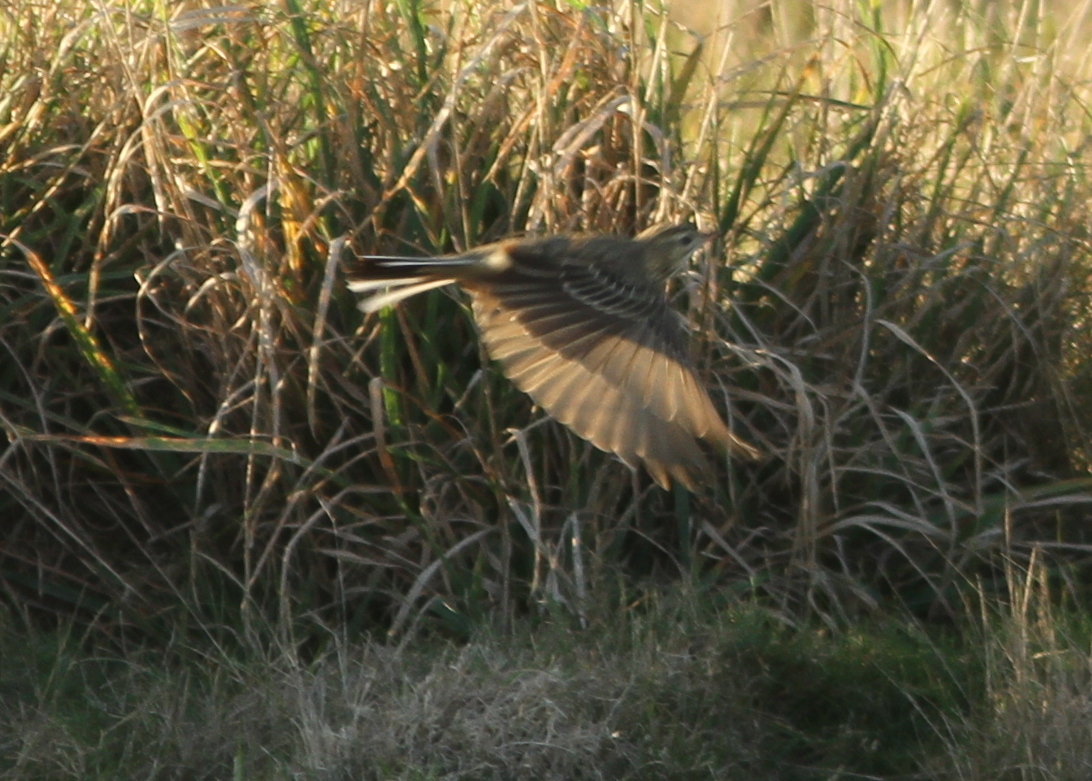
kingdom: Animalia
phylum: Chordata
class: Aves
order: Passeriformes
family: Motacillidae
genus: Anthus
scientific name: Anthus godlewskii
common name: Blyth's pipit
